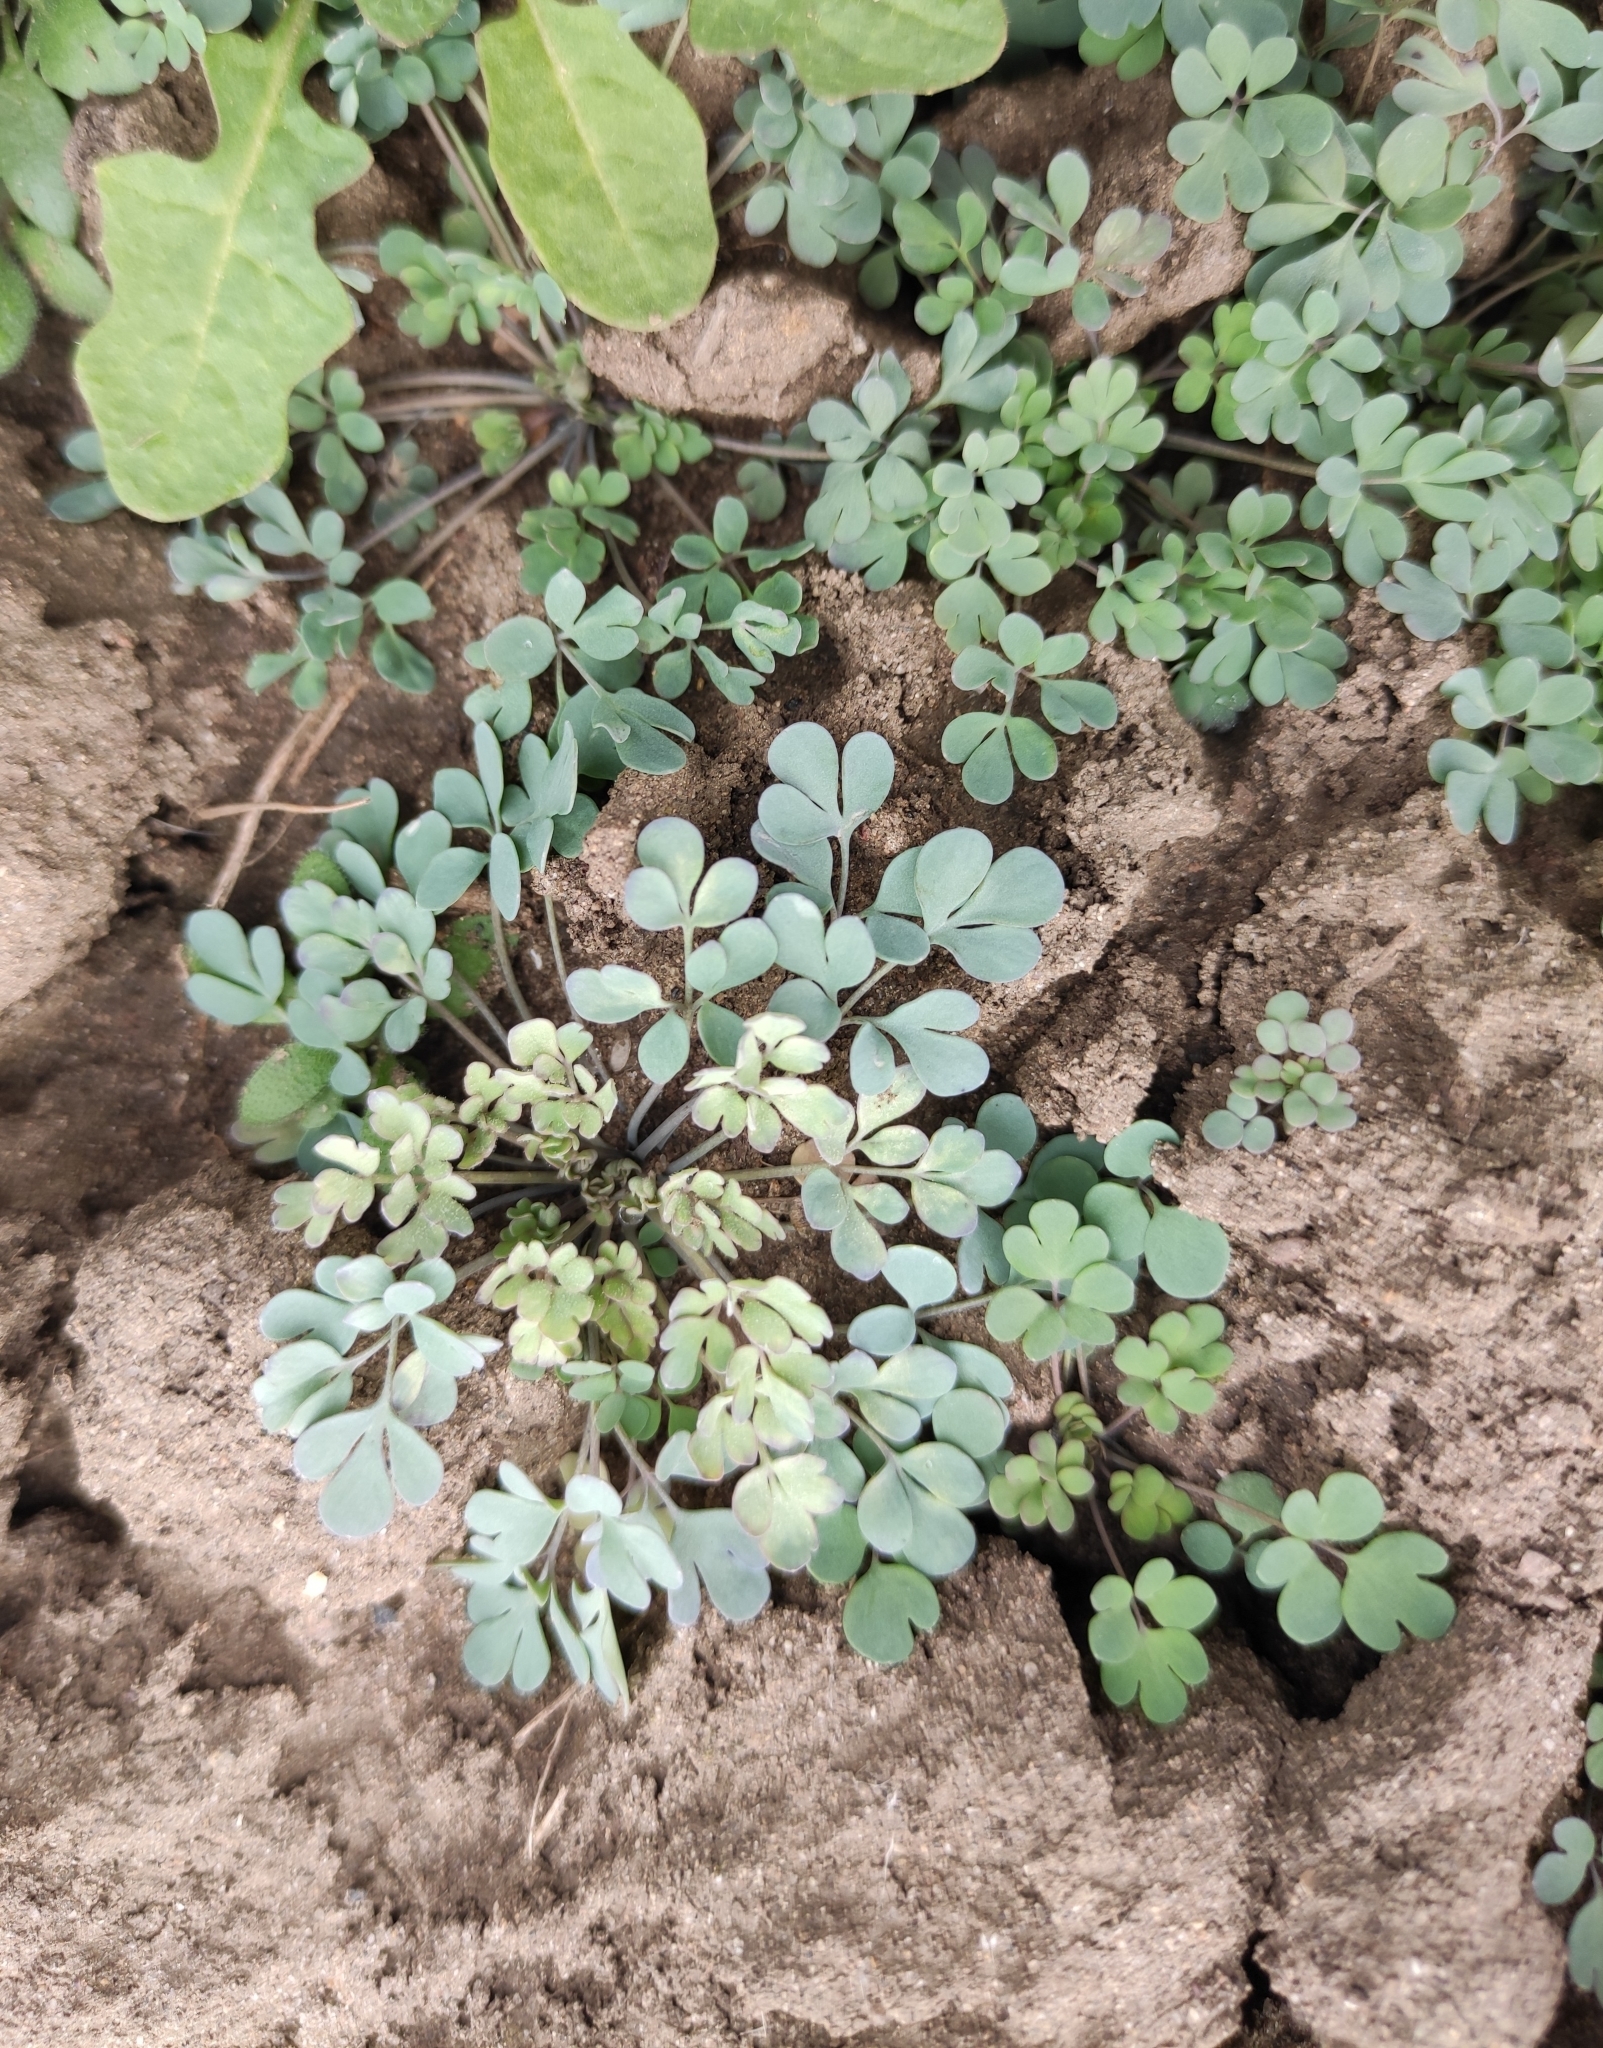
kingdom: Plantae
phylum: Tracheophyta
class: Magnoliopsida
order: Ranunculales
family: Ranunculaceae
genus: Leptopyrum
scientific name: Leptopyrum fumarioides
